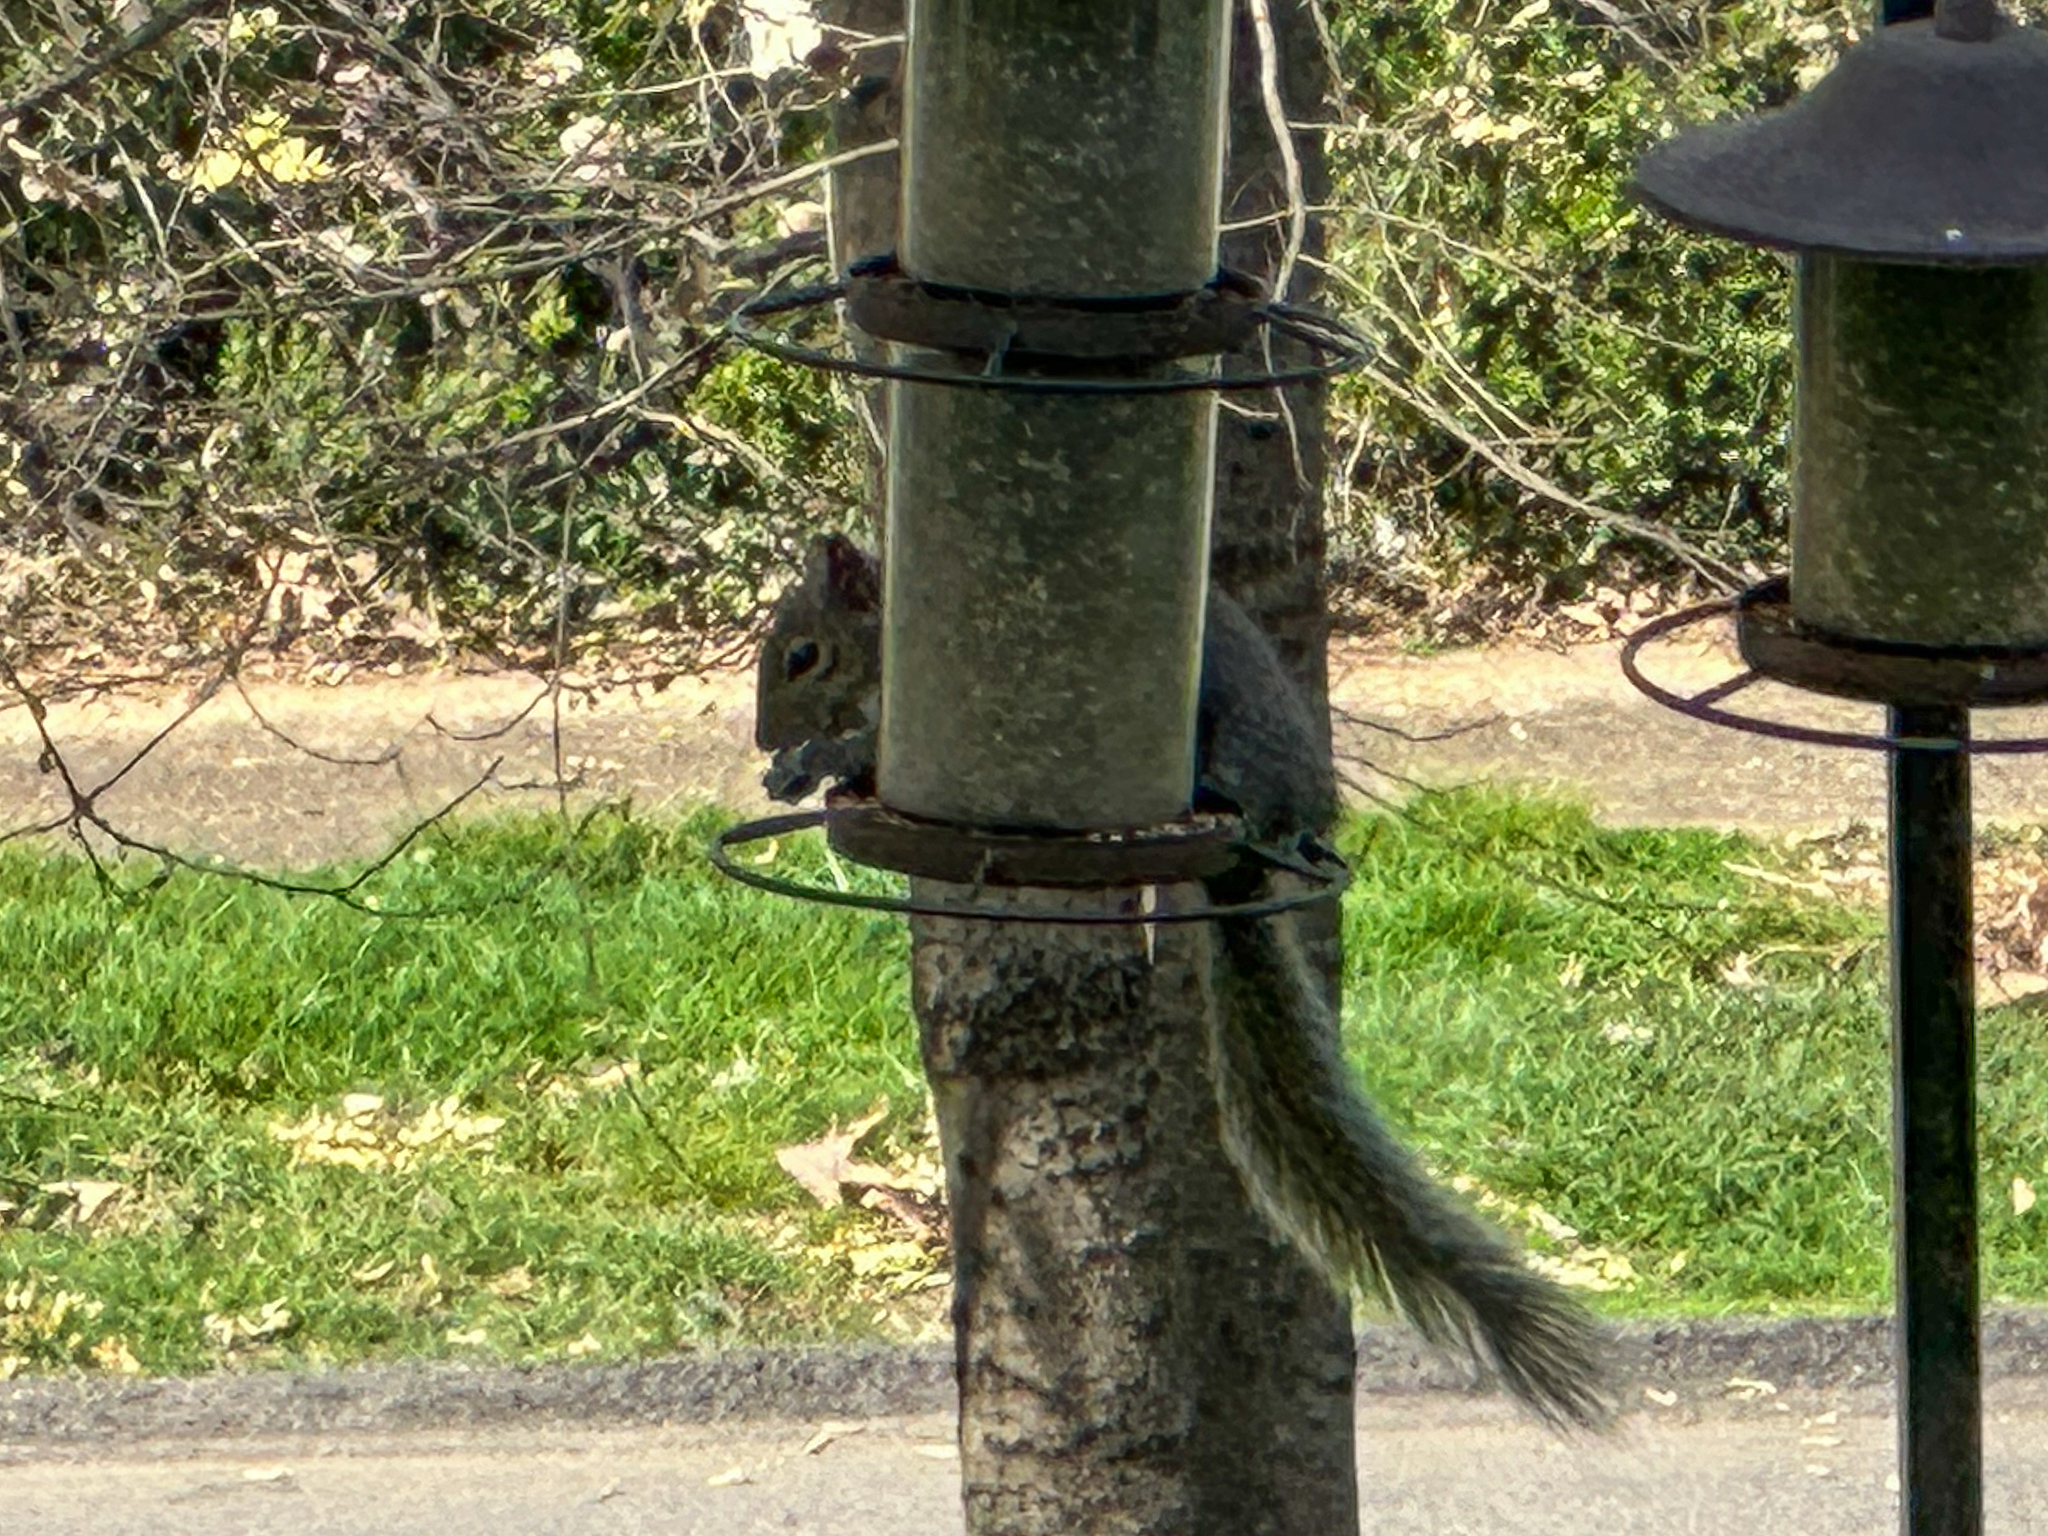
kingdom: Animalia
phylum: Chordata
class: Mammalia
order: Rodentia
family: Sciuridae
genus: Sciurus
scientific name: Sciurus carolinensis
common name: Eastern gray squirrel
